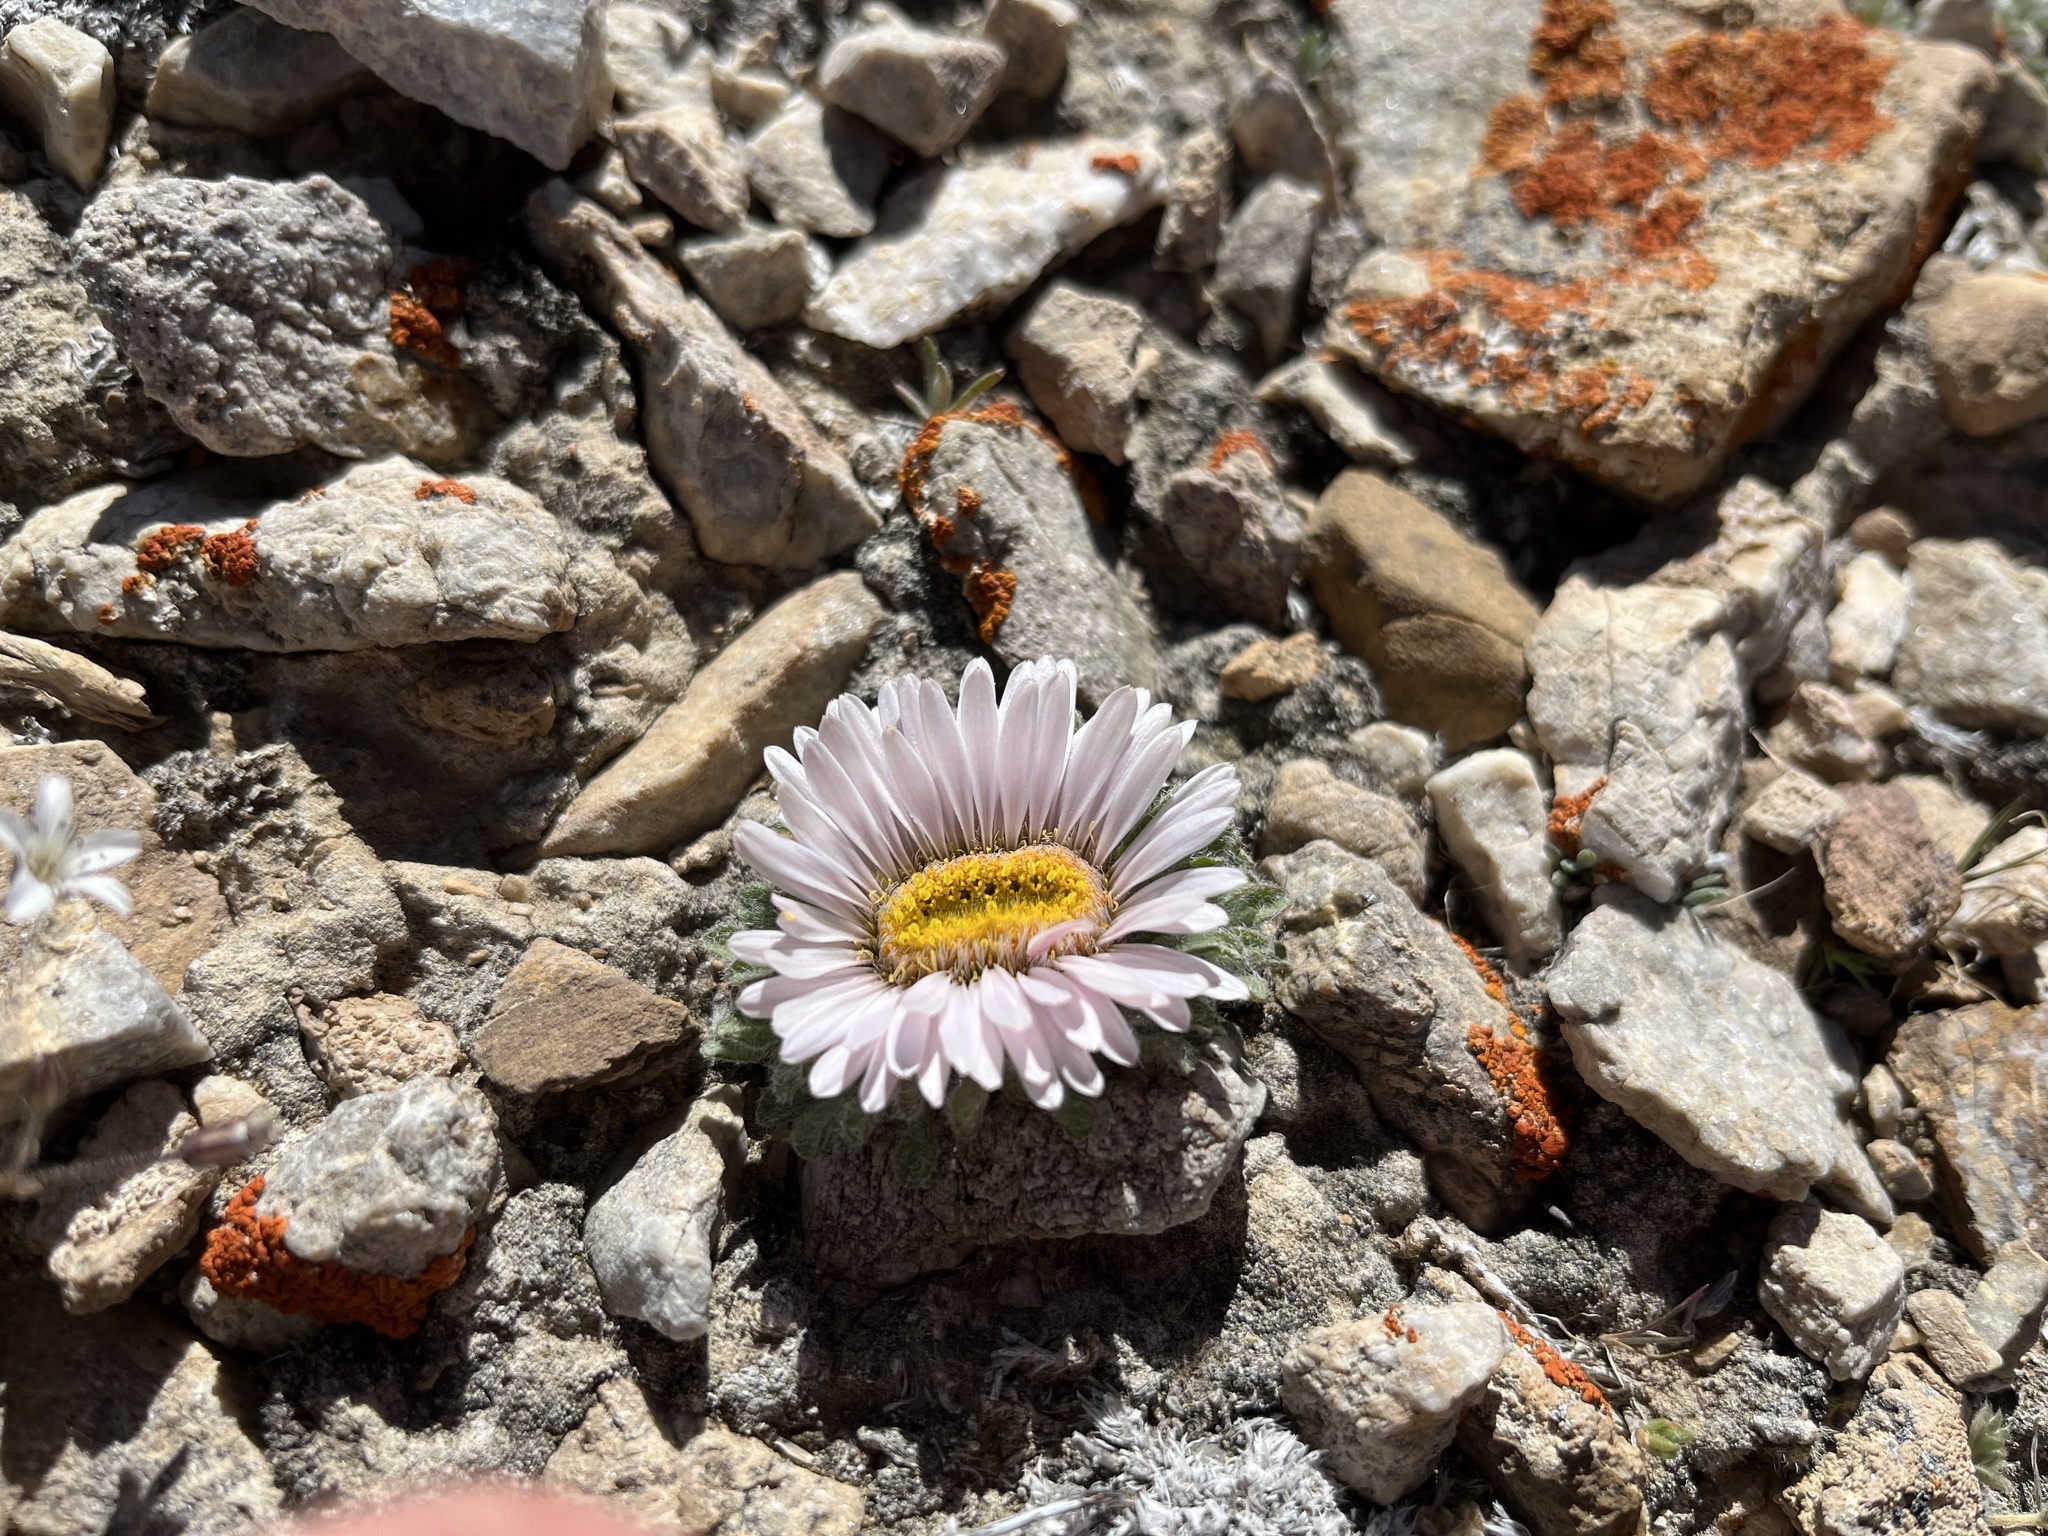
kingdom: Plantae
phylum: Tracheophyta
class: Magnoliopsida
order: Asterales
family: Asteraceae
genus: Townsendia
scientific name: Townsendia condensata
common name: Alpine townsend daisy
